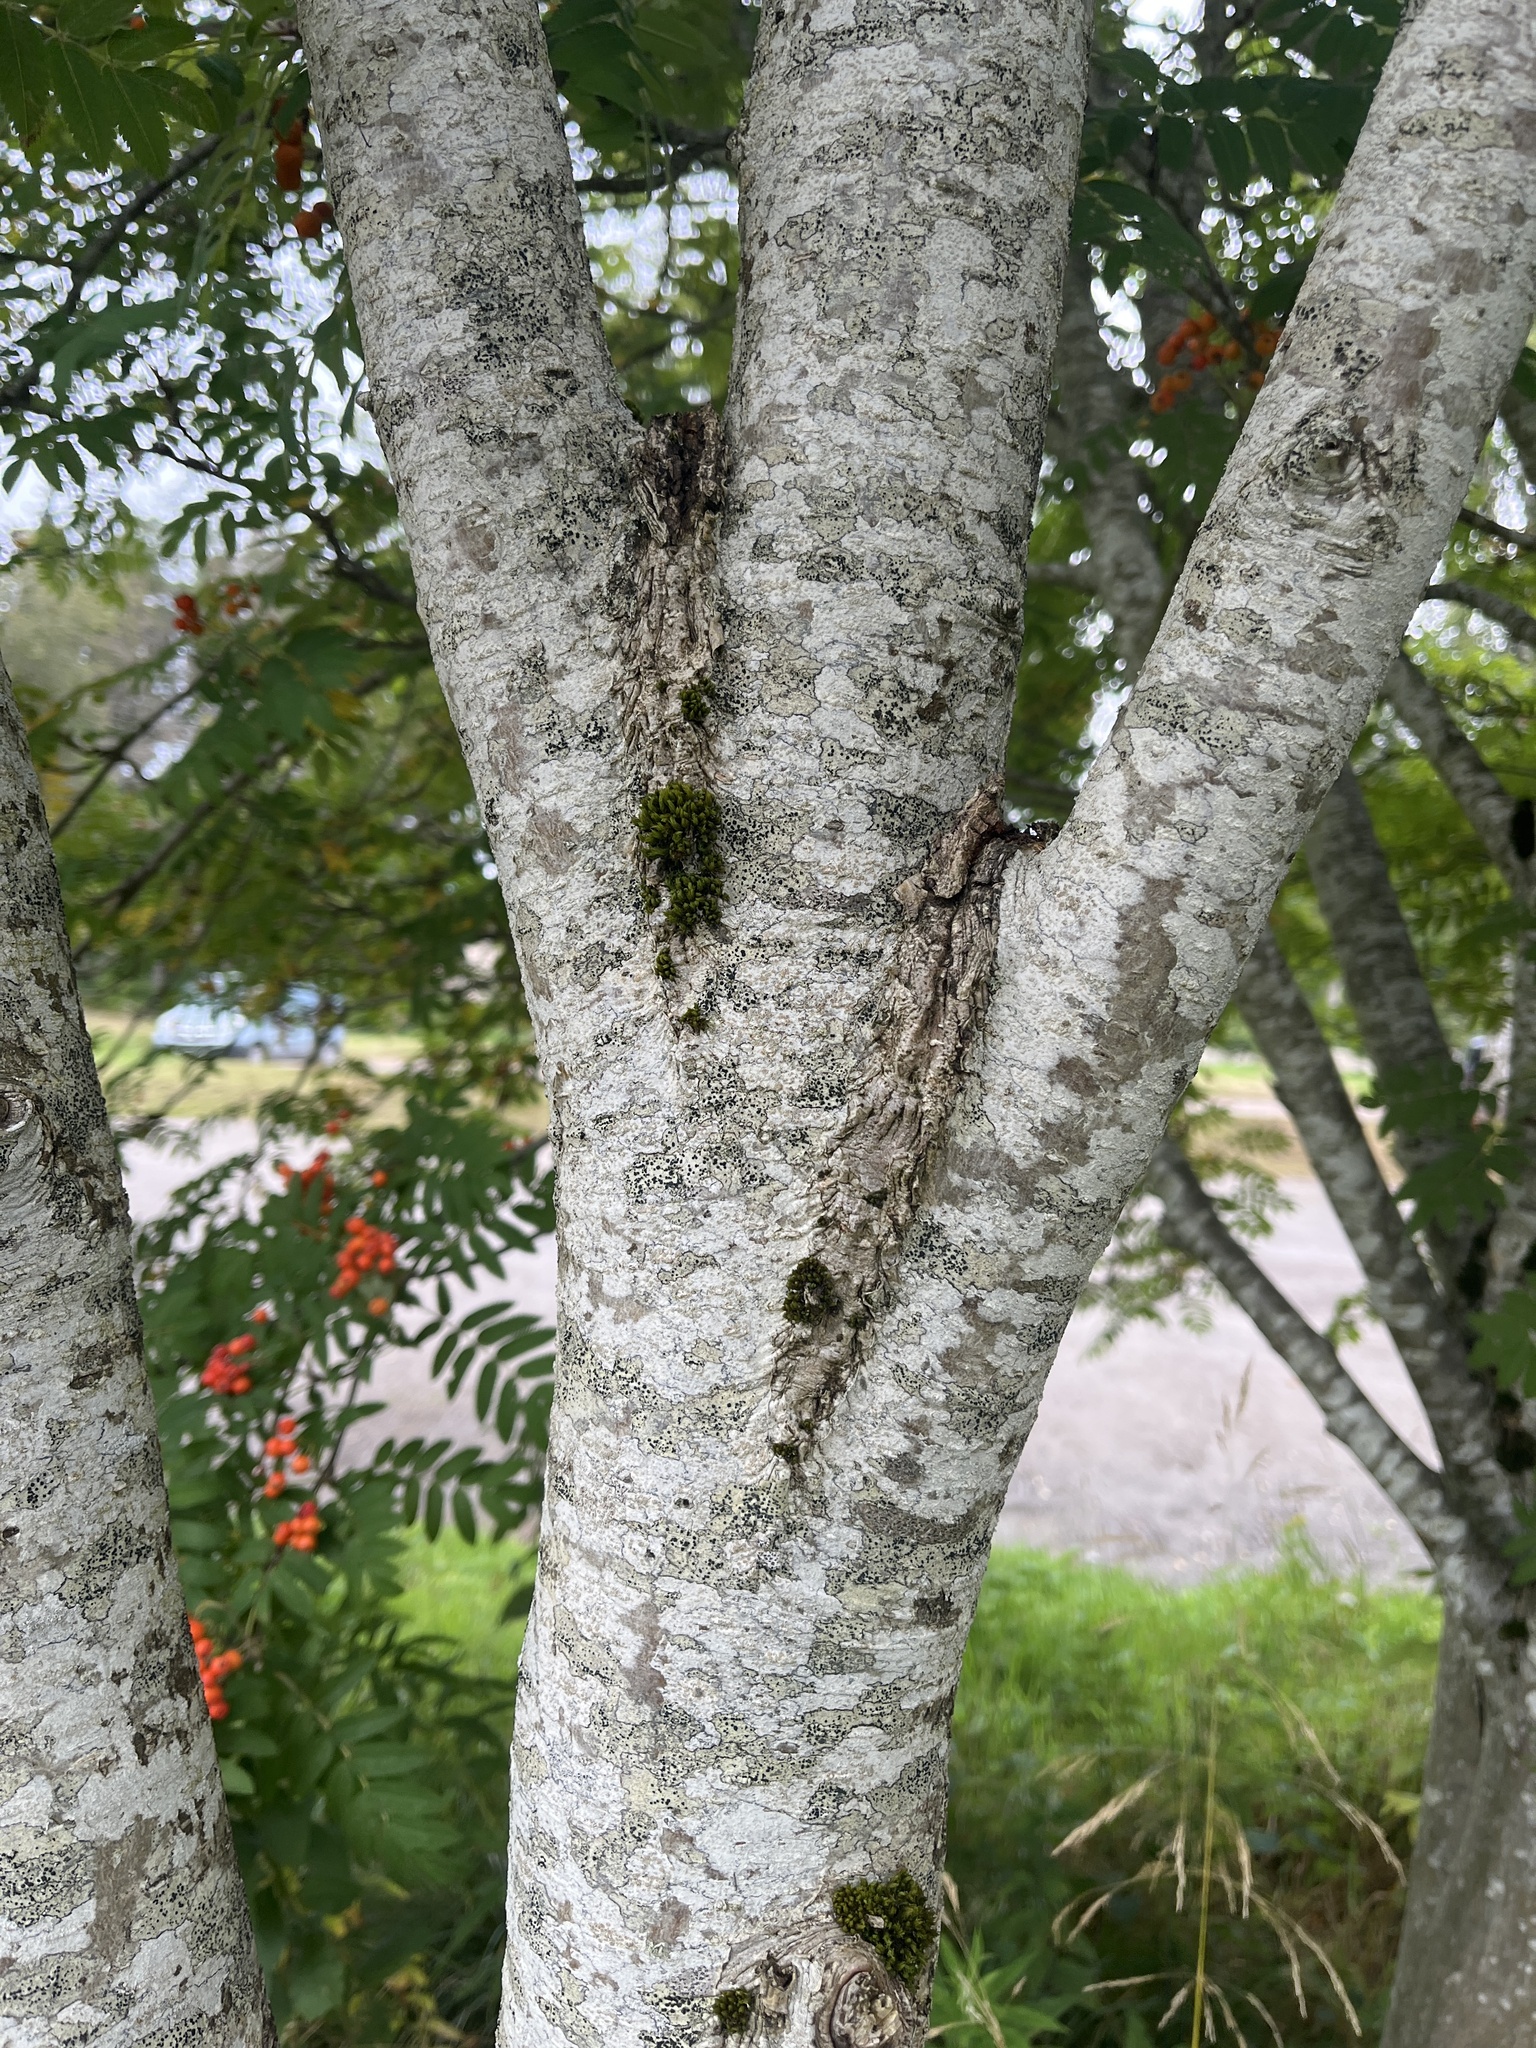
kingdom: Plantae
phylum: Tracheophyta
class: Magnoliopsida
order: Rosales
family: Rosaceae
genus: Sorbus
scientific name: Sorbus aucuparia
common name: Rowan
